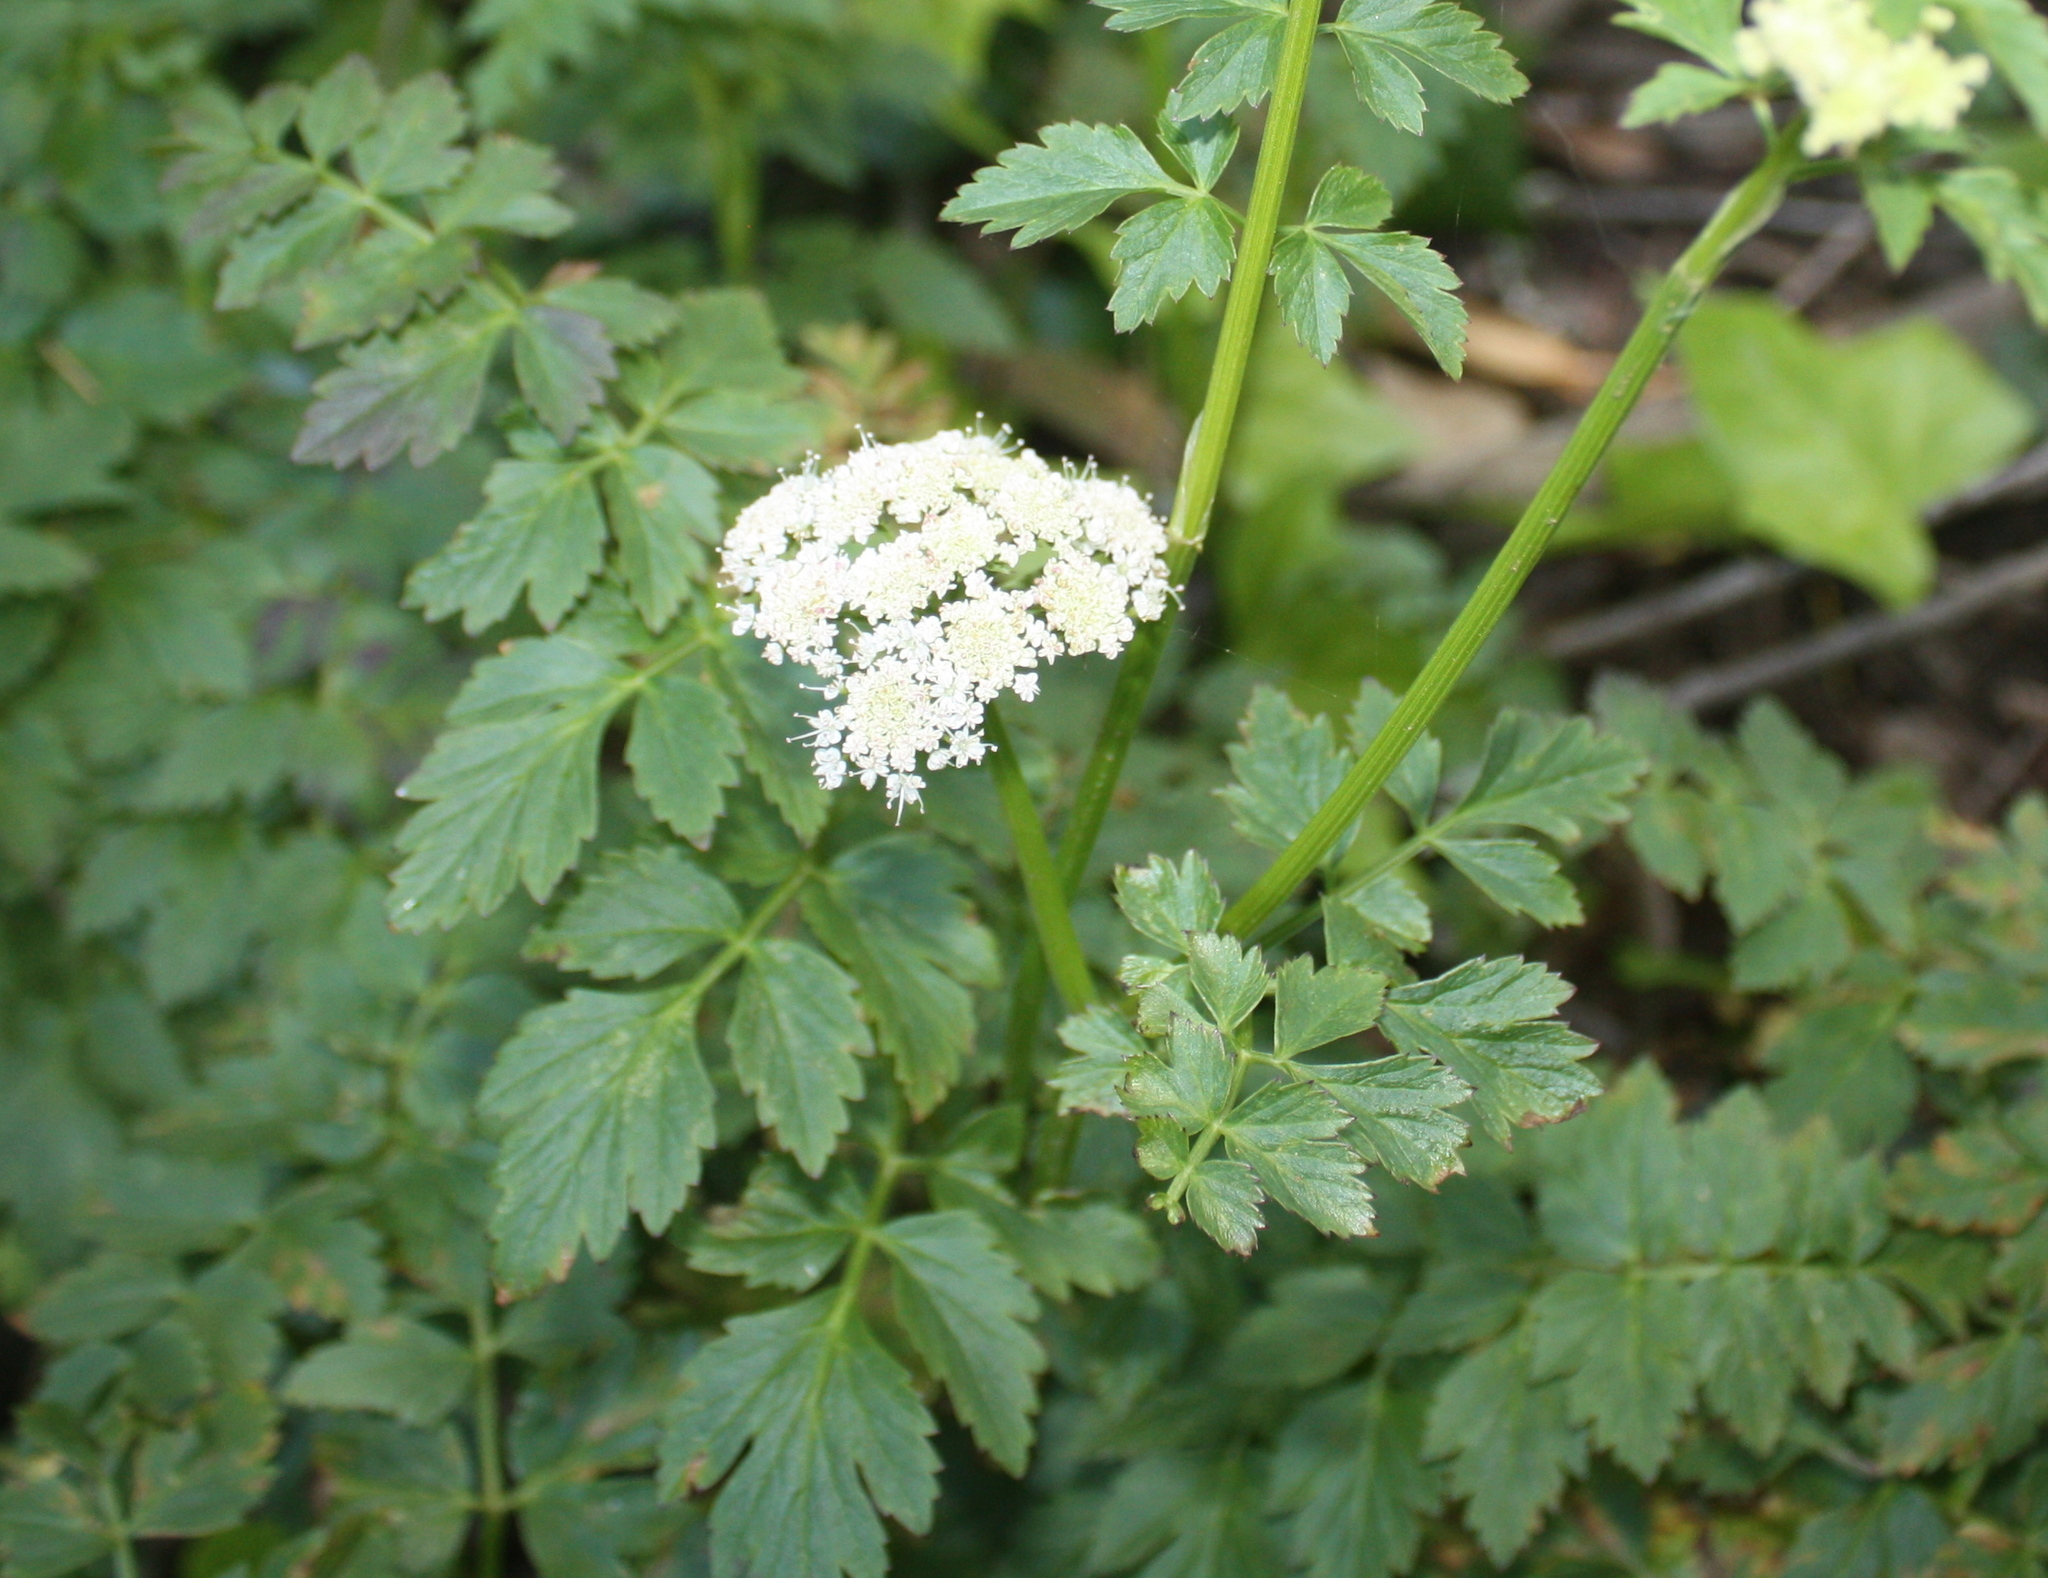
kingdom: Plantae
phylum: Tracheophyta
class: Magnoliopsida
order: Apiales
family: Apiaceae
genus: Oenanthe
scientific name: Oenanthe sarmentosa
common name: American water-parsley
